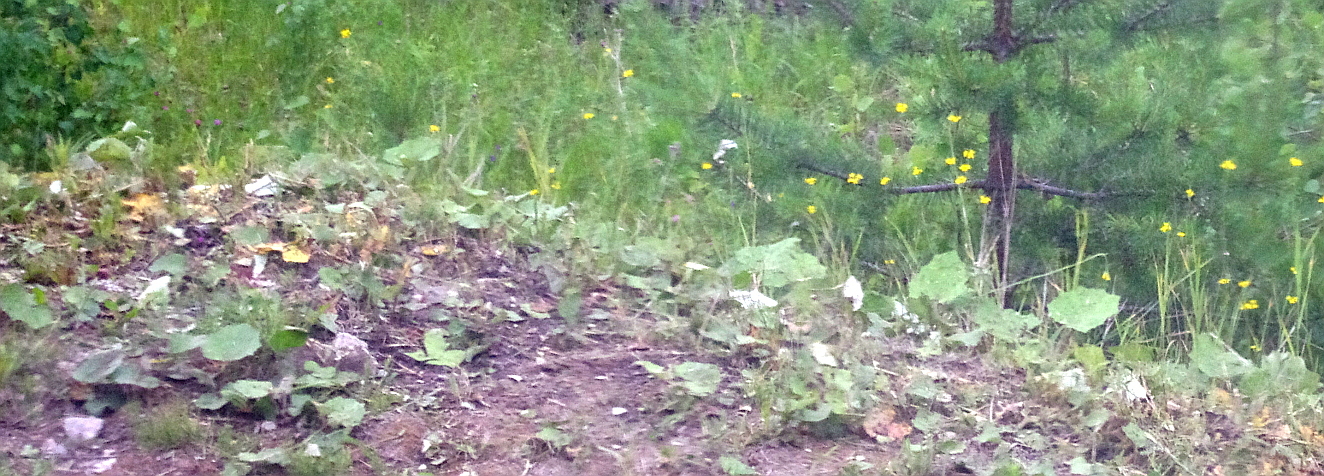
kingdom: Plantae
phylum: Tracheophyta
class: Magnoliopsida
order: Asterales
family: Asteraceae
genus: Tussilago
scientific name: Tussilago farfara
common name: Coltsfoot
